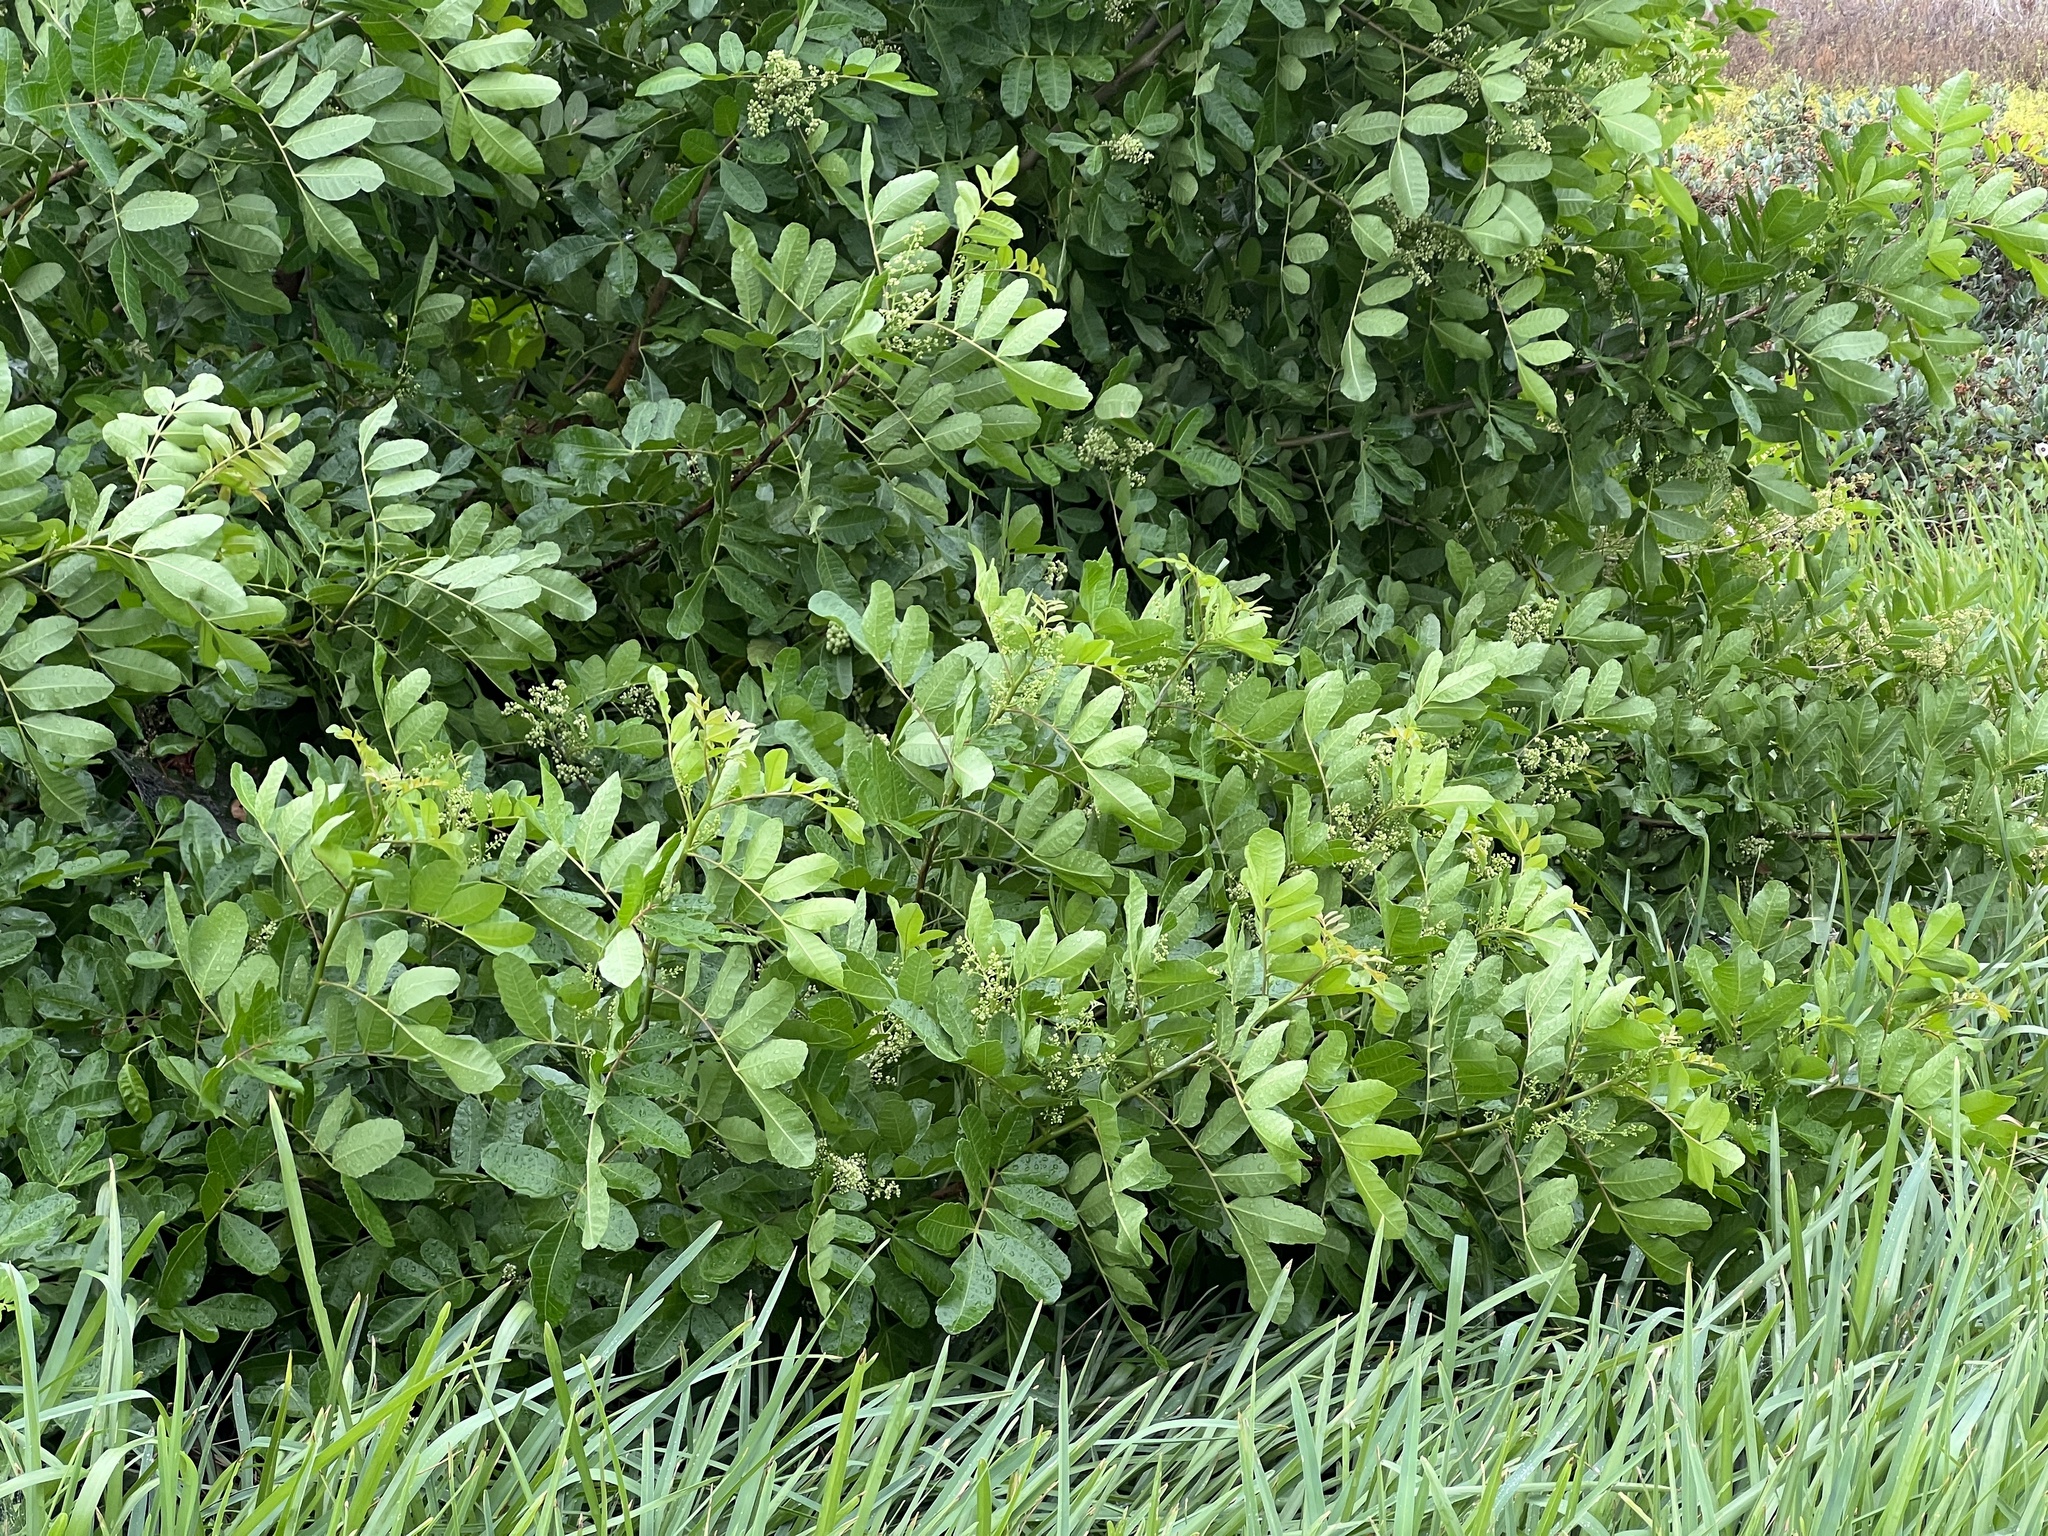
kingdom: Plantae
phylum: Tracheophyta
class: Magnoliopsida
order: Sapindales
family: Anacardiaceae
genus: Schinus
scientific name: Schinus terebinthifolia
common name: Brazilian peppertree
